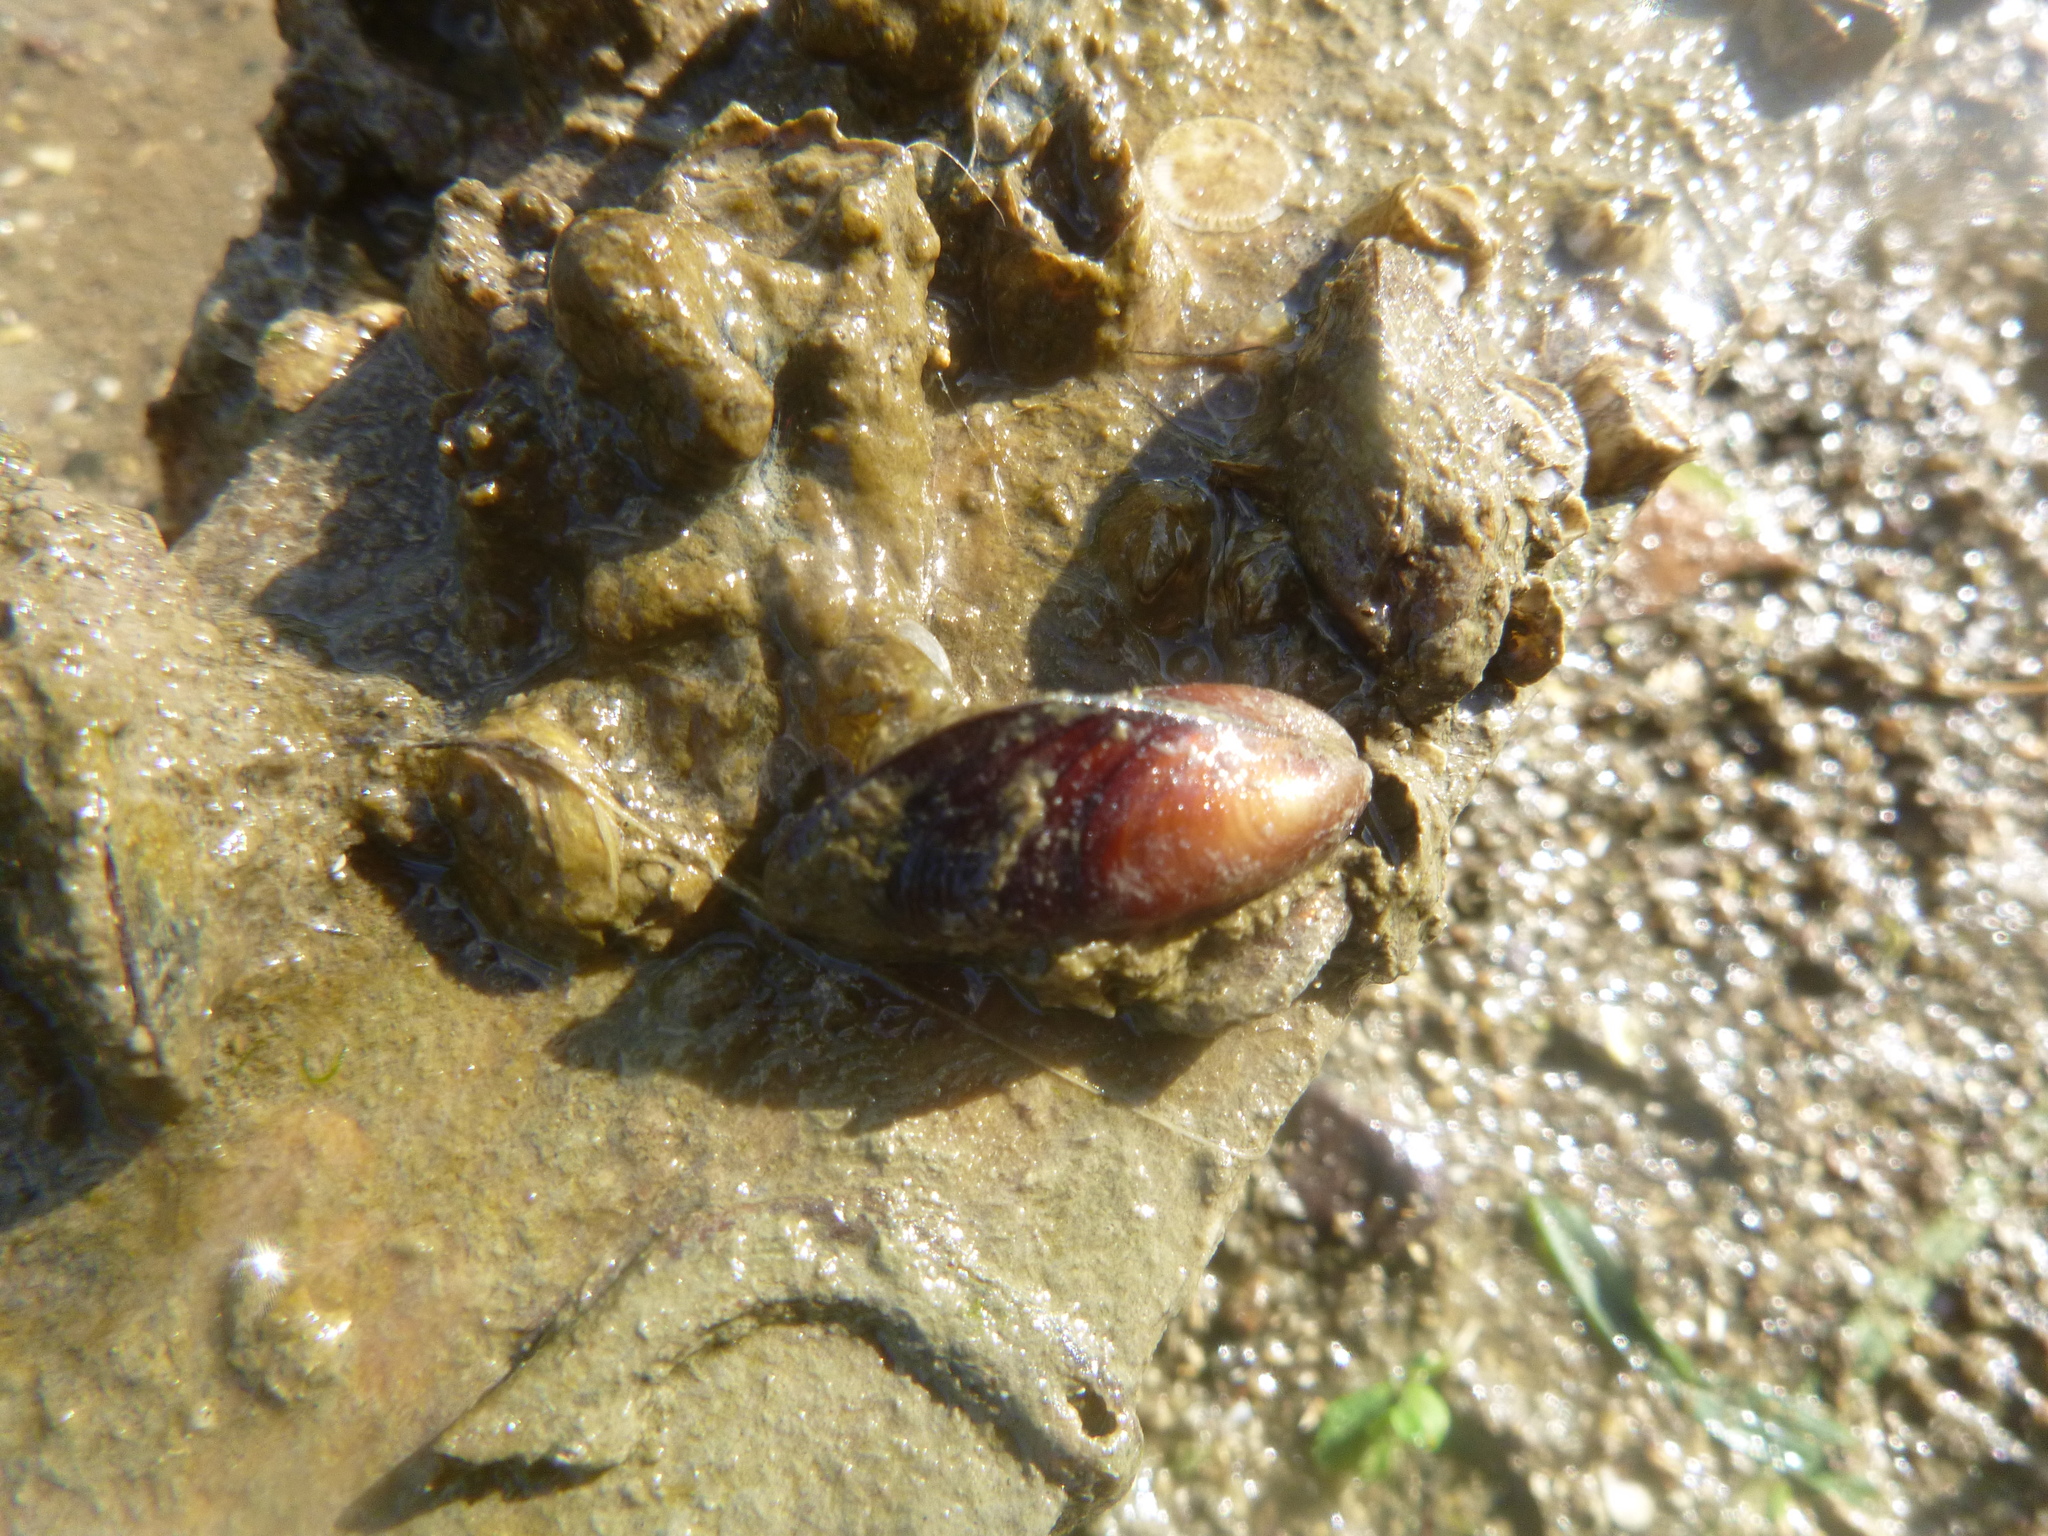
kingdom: Animalia
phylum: Mollusca
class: Bivalvia
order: Mytilida
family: Mytilidae
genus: Xenostrobus
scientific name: Xenostrobus securis
